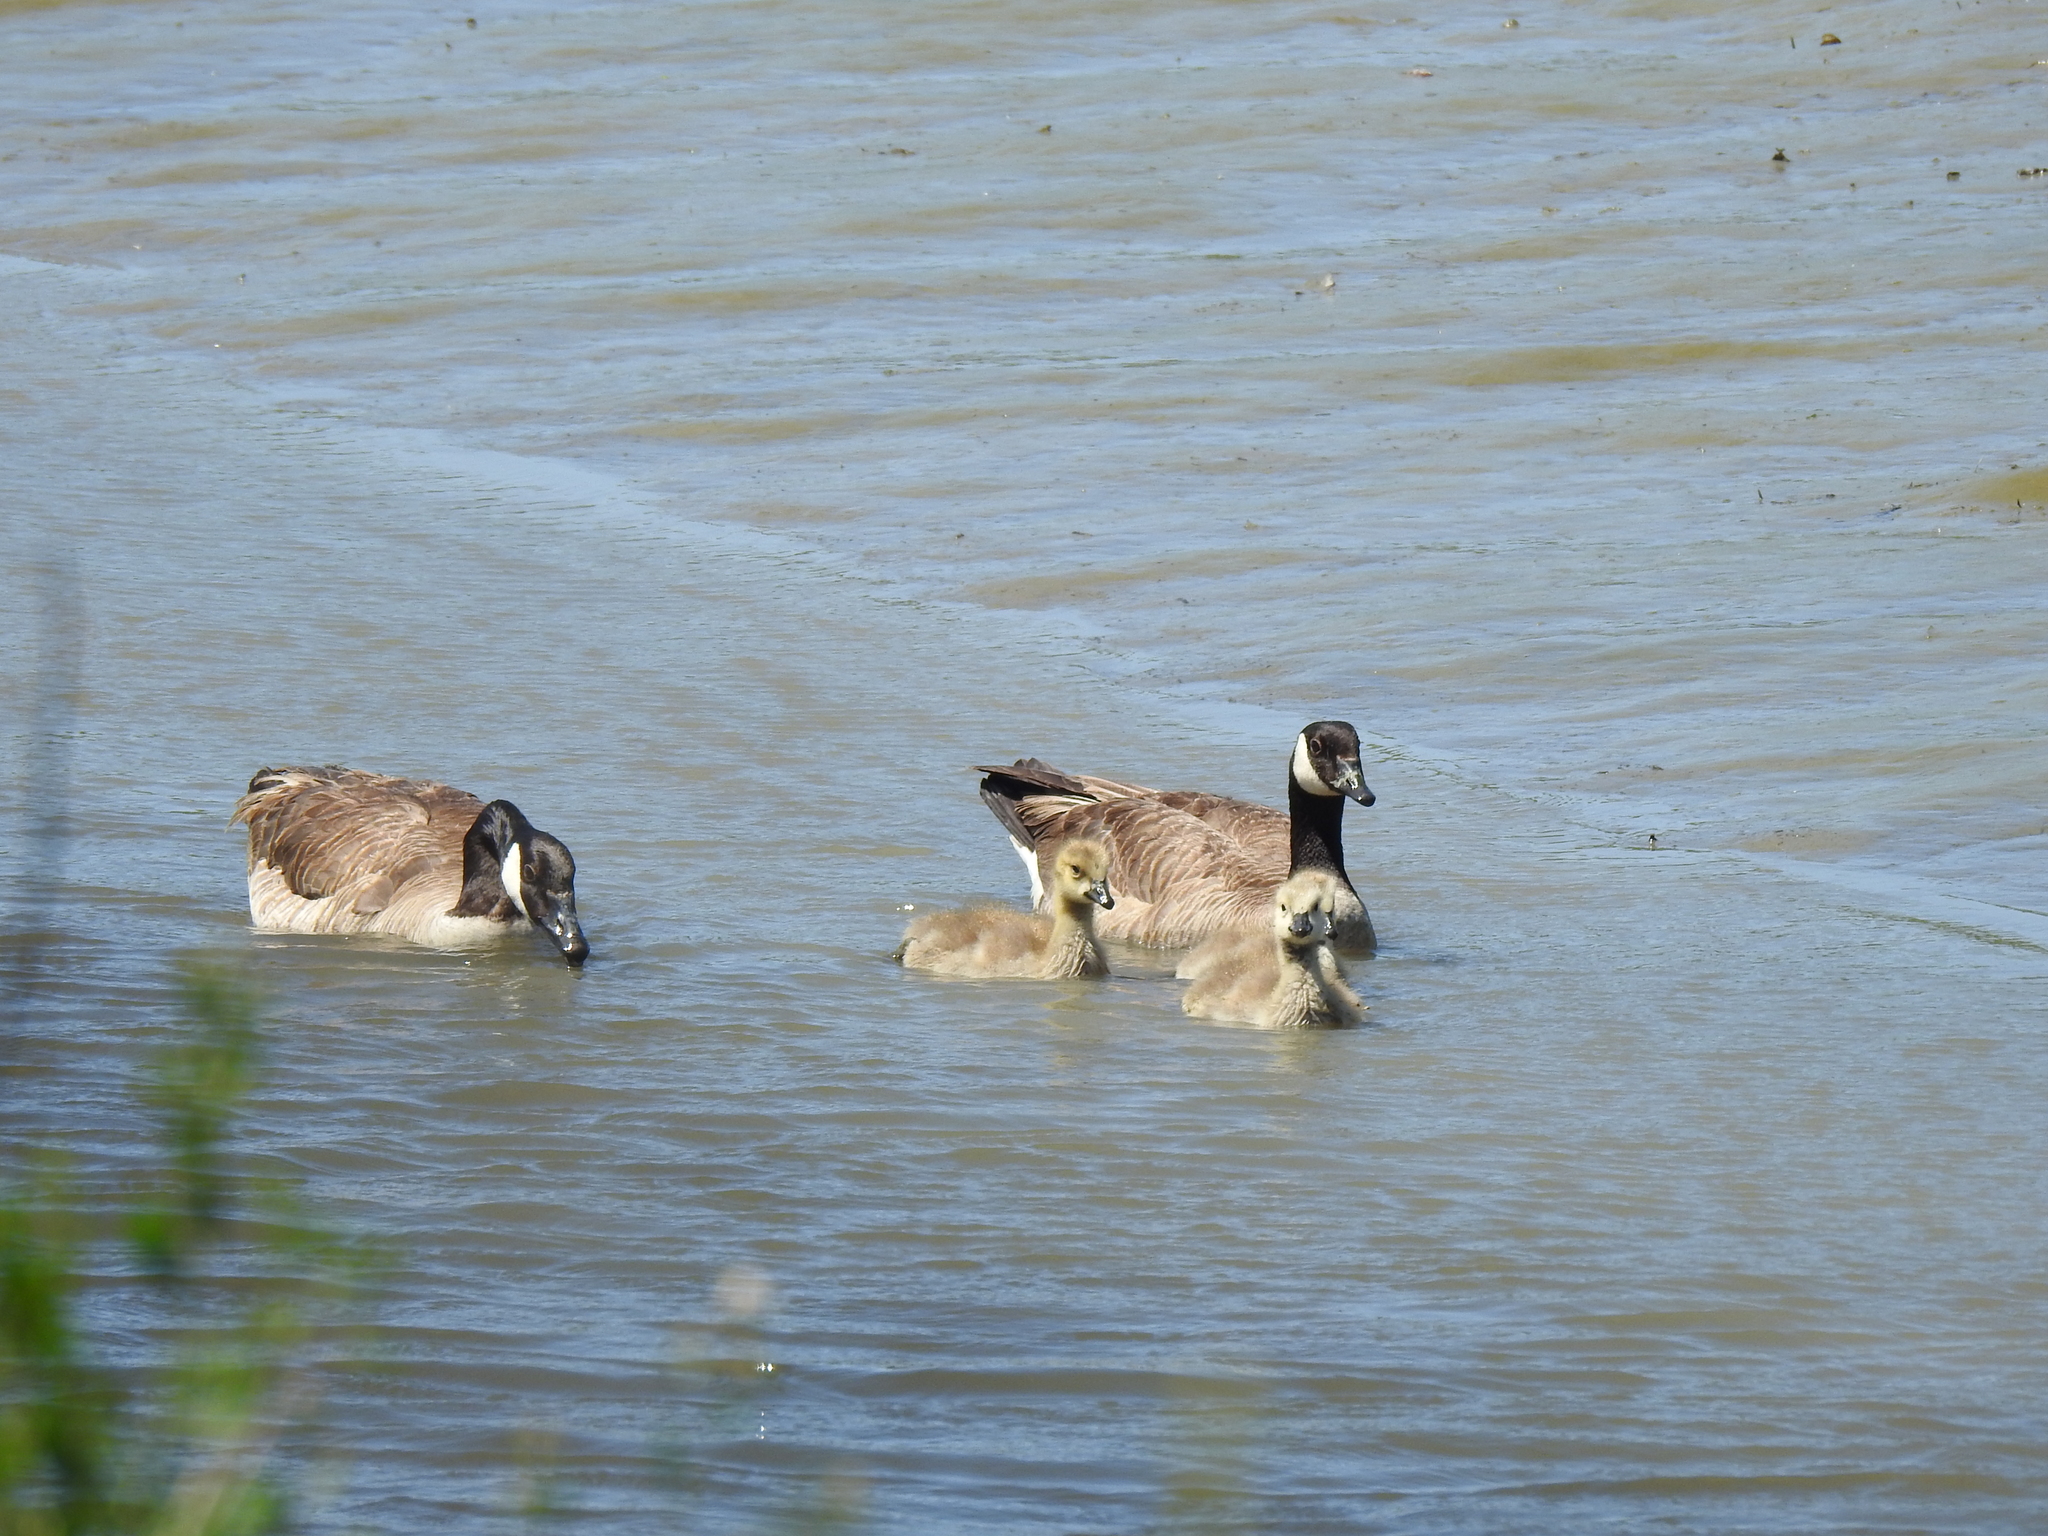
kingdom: Animalia
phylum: Chordata
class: Aves
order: Anseriformes
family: Anatidae
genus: Branta
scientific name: Branta canadensis
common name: Canada goose
